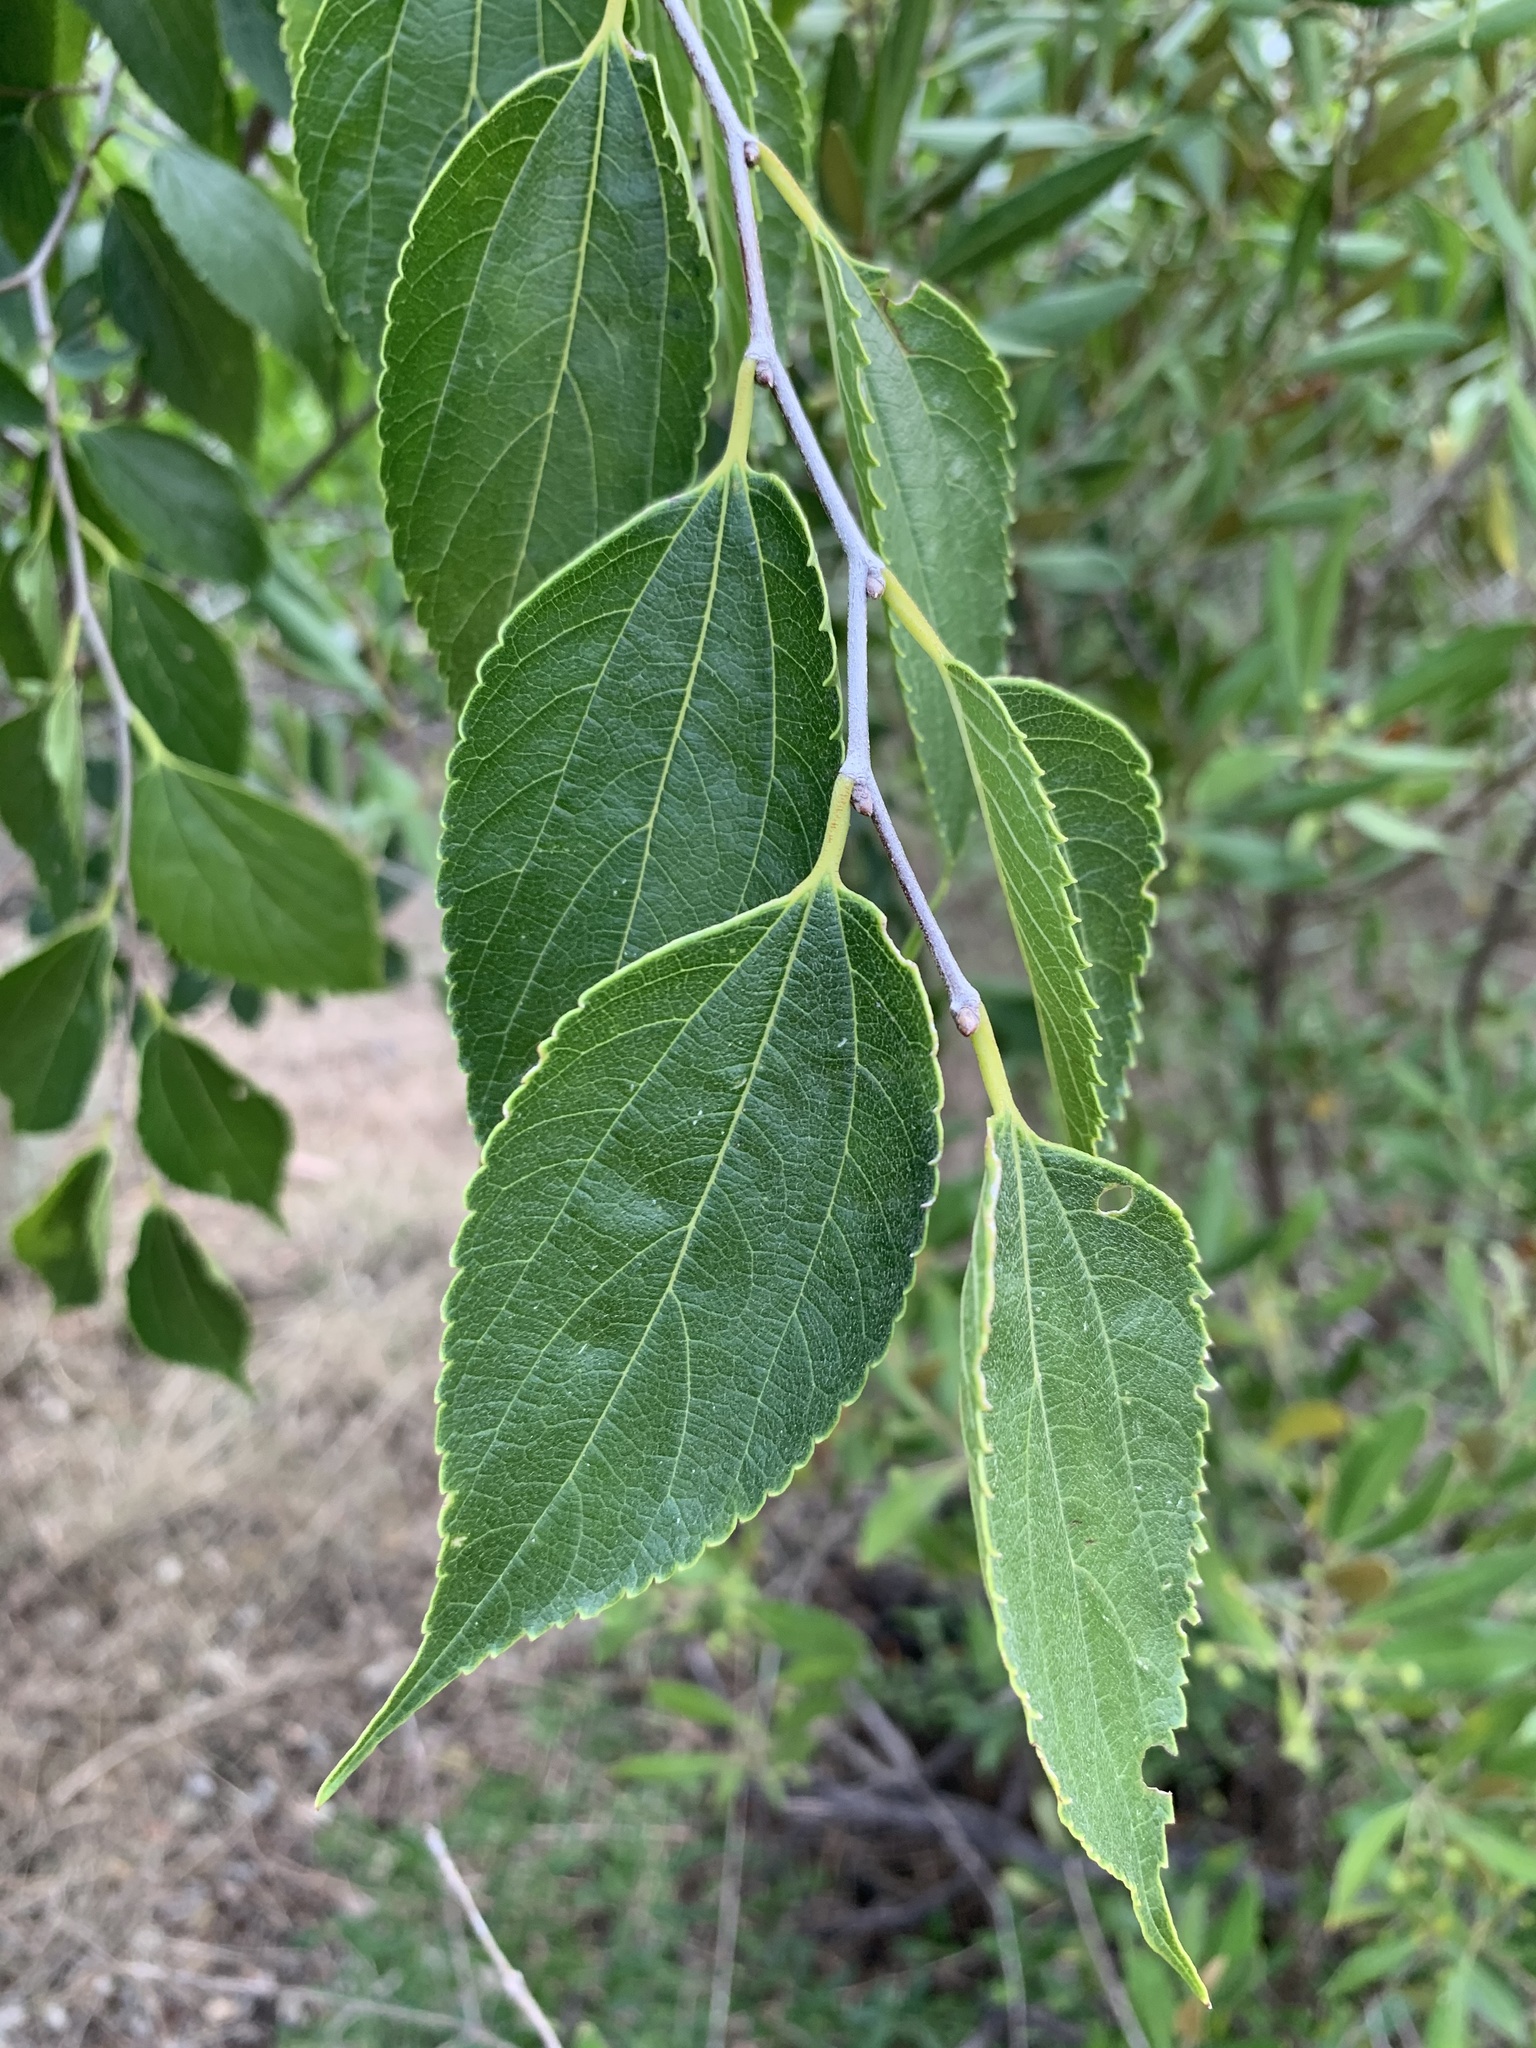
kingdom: Plantae
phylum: Tracheophyta
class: Magnoliopsida
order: Rosales
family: Cannabaceae
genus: Celtis
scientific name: Celtis sinensis
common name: Chinese hackberry
